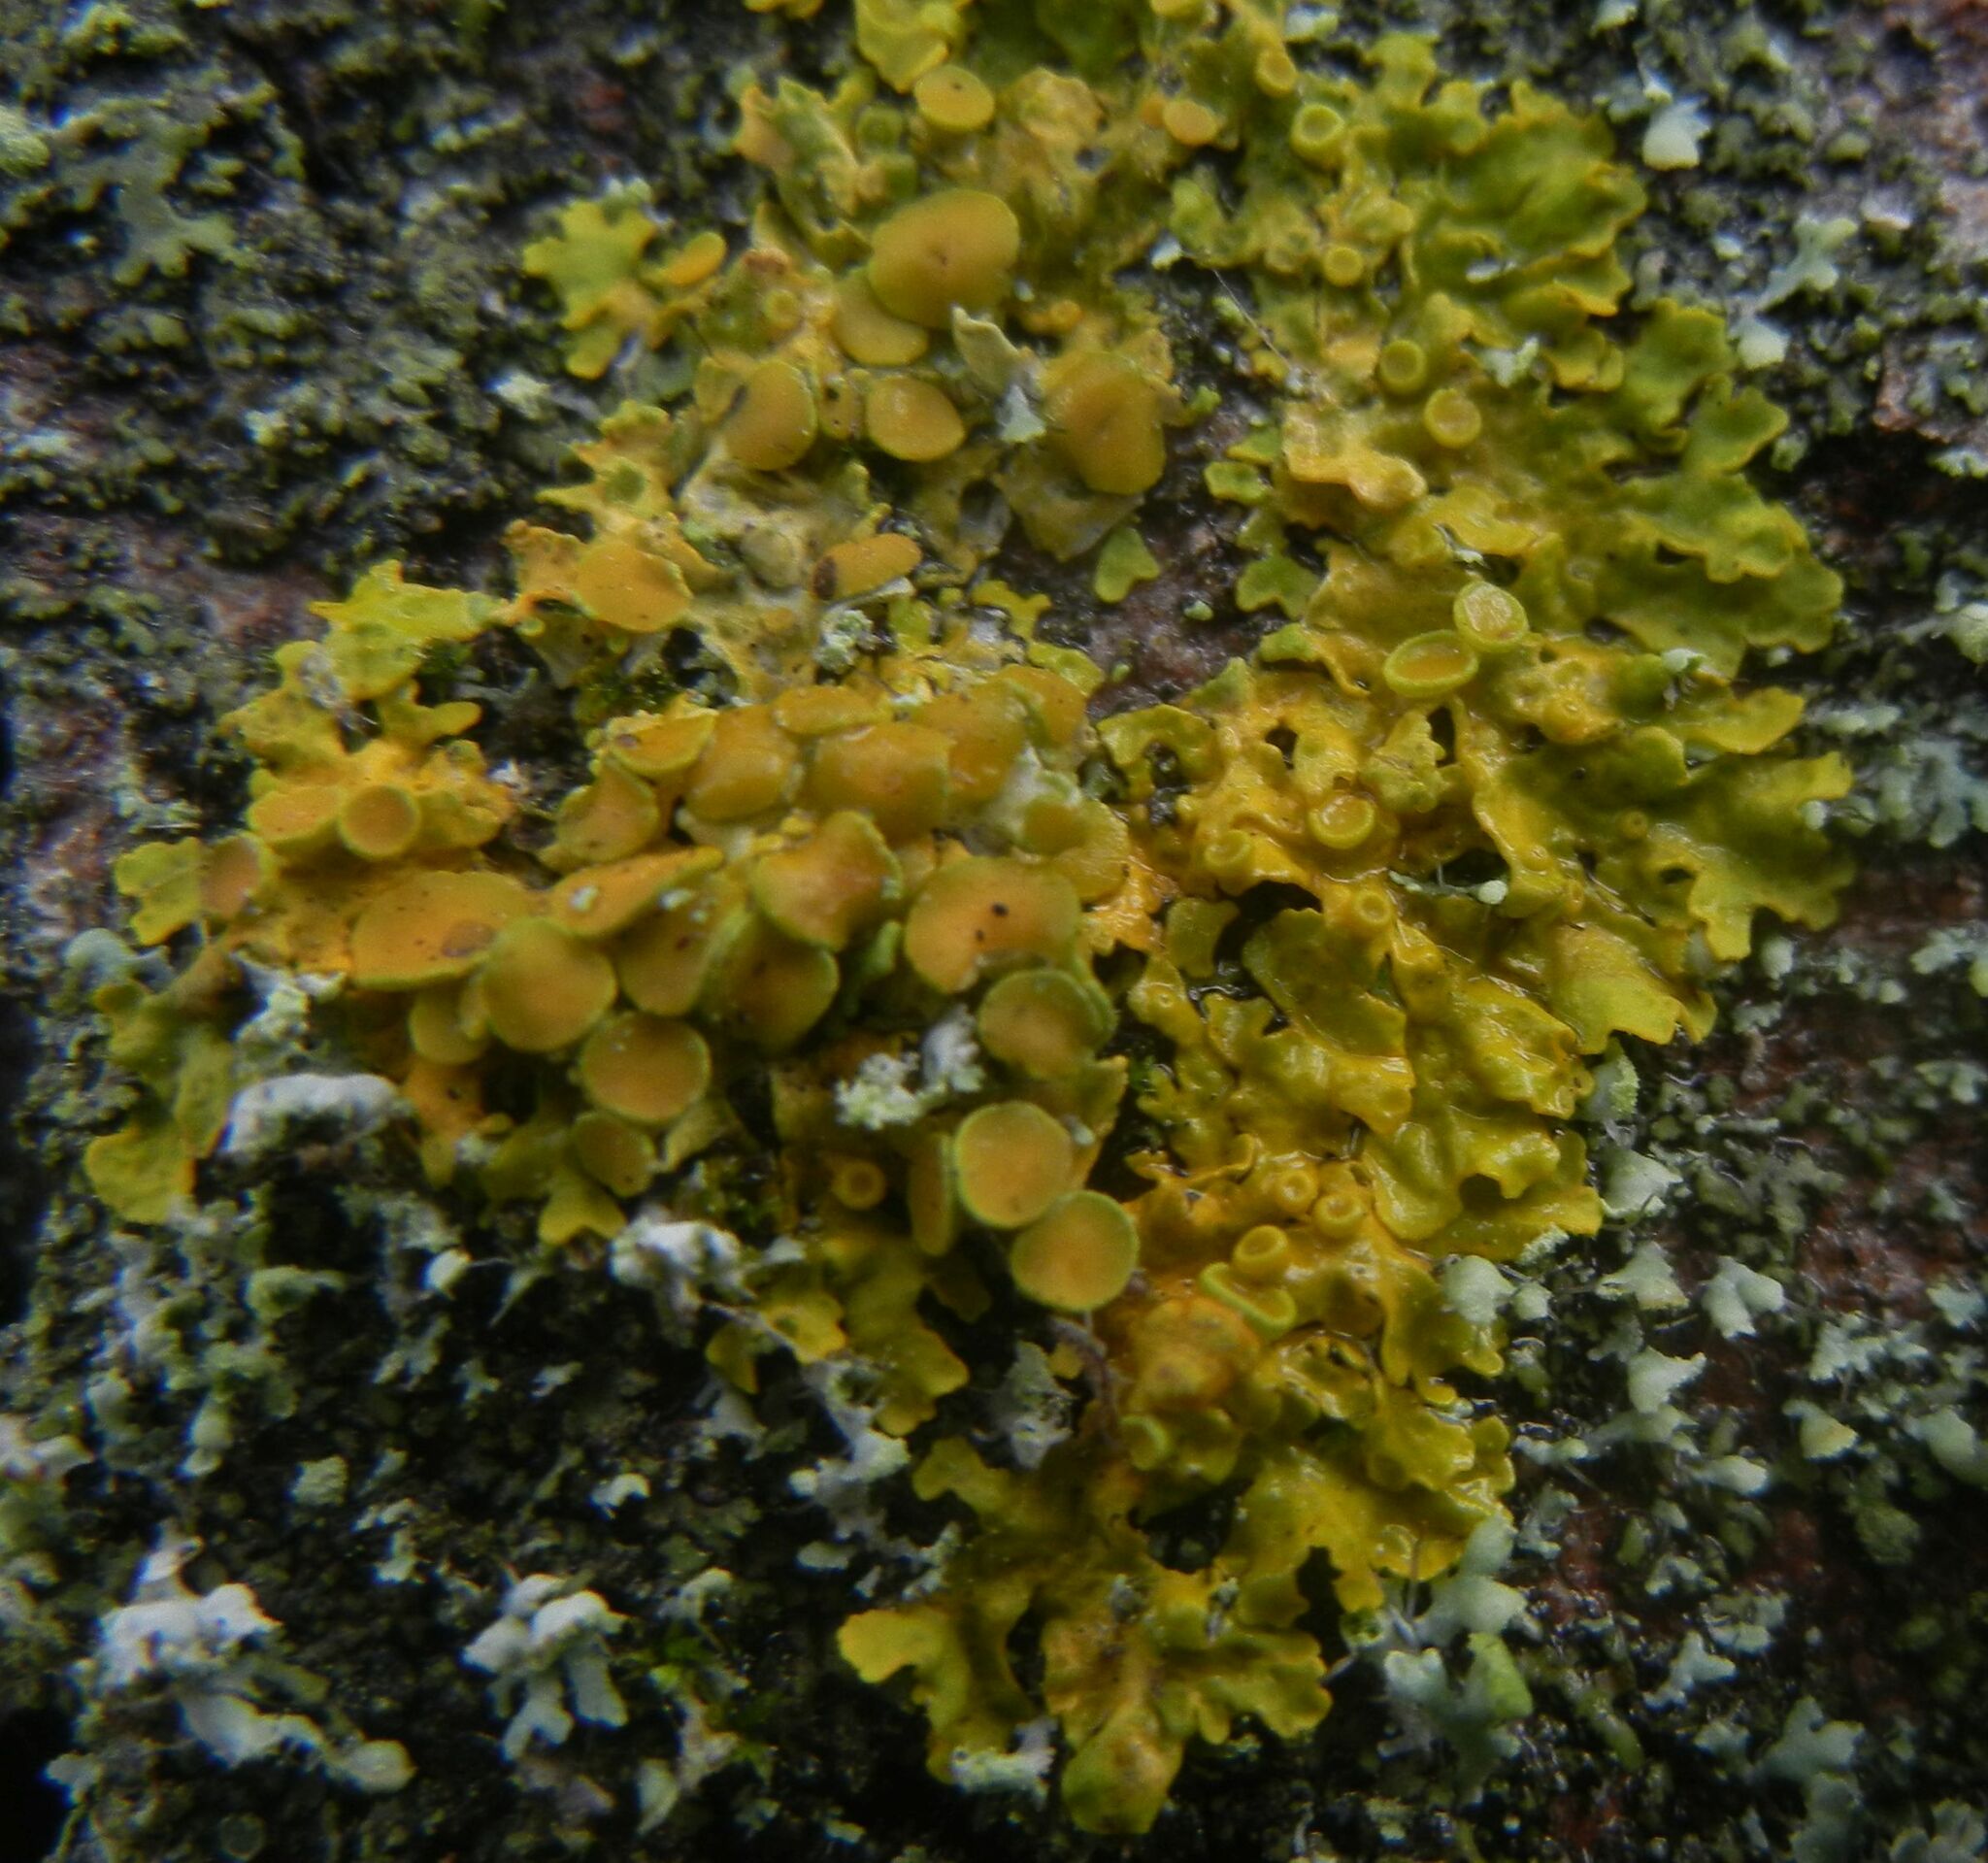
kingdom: Fungi
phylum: Ascomycota
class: Lecanoromycetes
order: Teloschistales
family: Teloschistaceae
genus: Xanthoria
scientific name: Xanthoria parietina
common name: Common orange lichen
